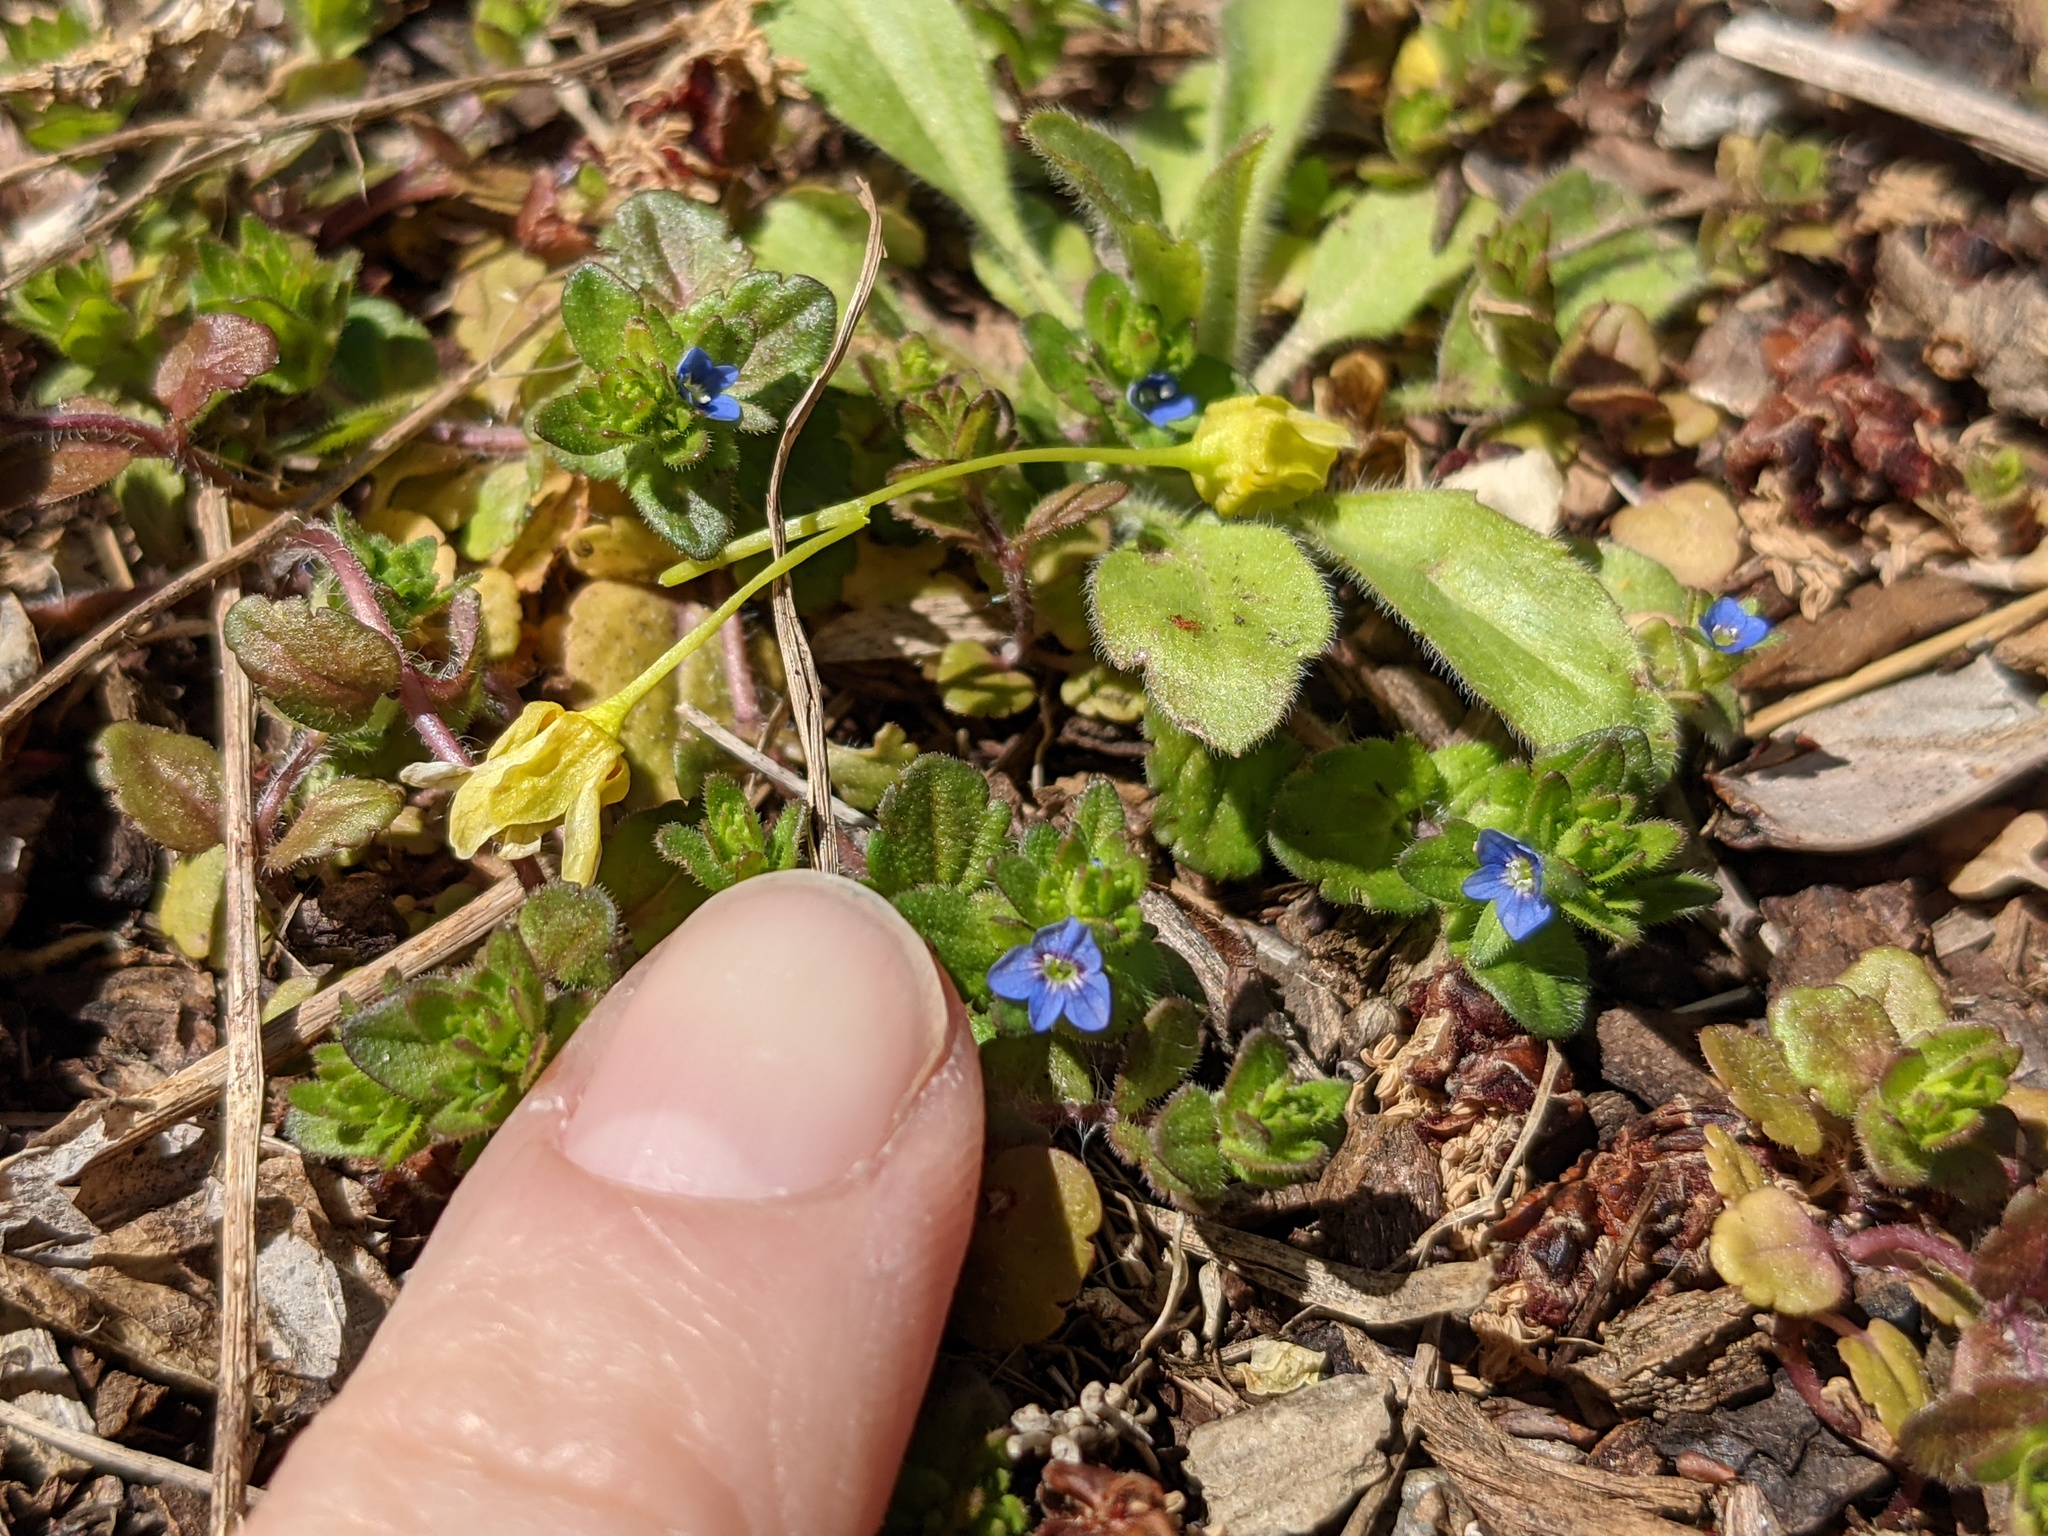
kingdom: Plantae
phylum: Tracheophyta
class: Magnoliopsida
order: Lamiales
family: Plantaginaceae
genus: Veronica
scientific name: Veronica arvensis
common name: Corn speedwell
